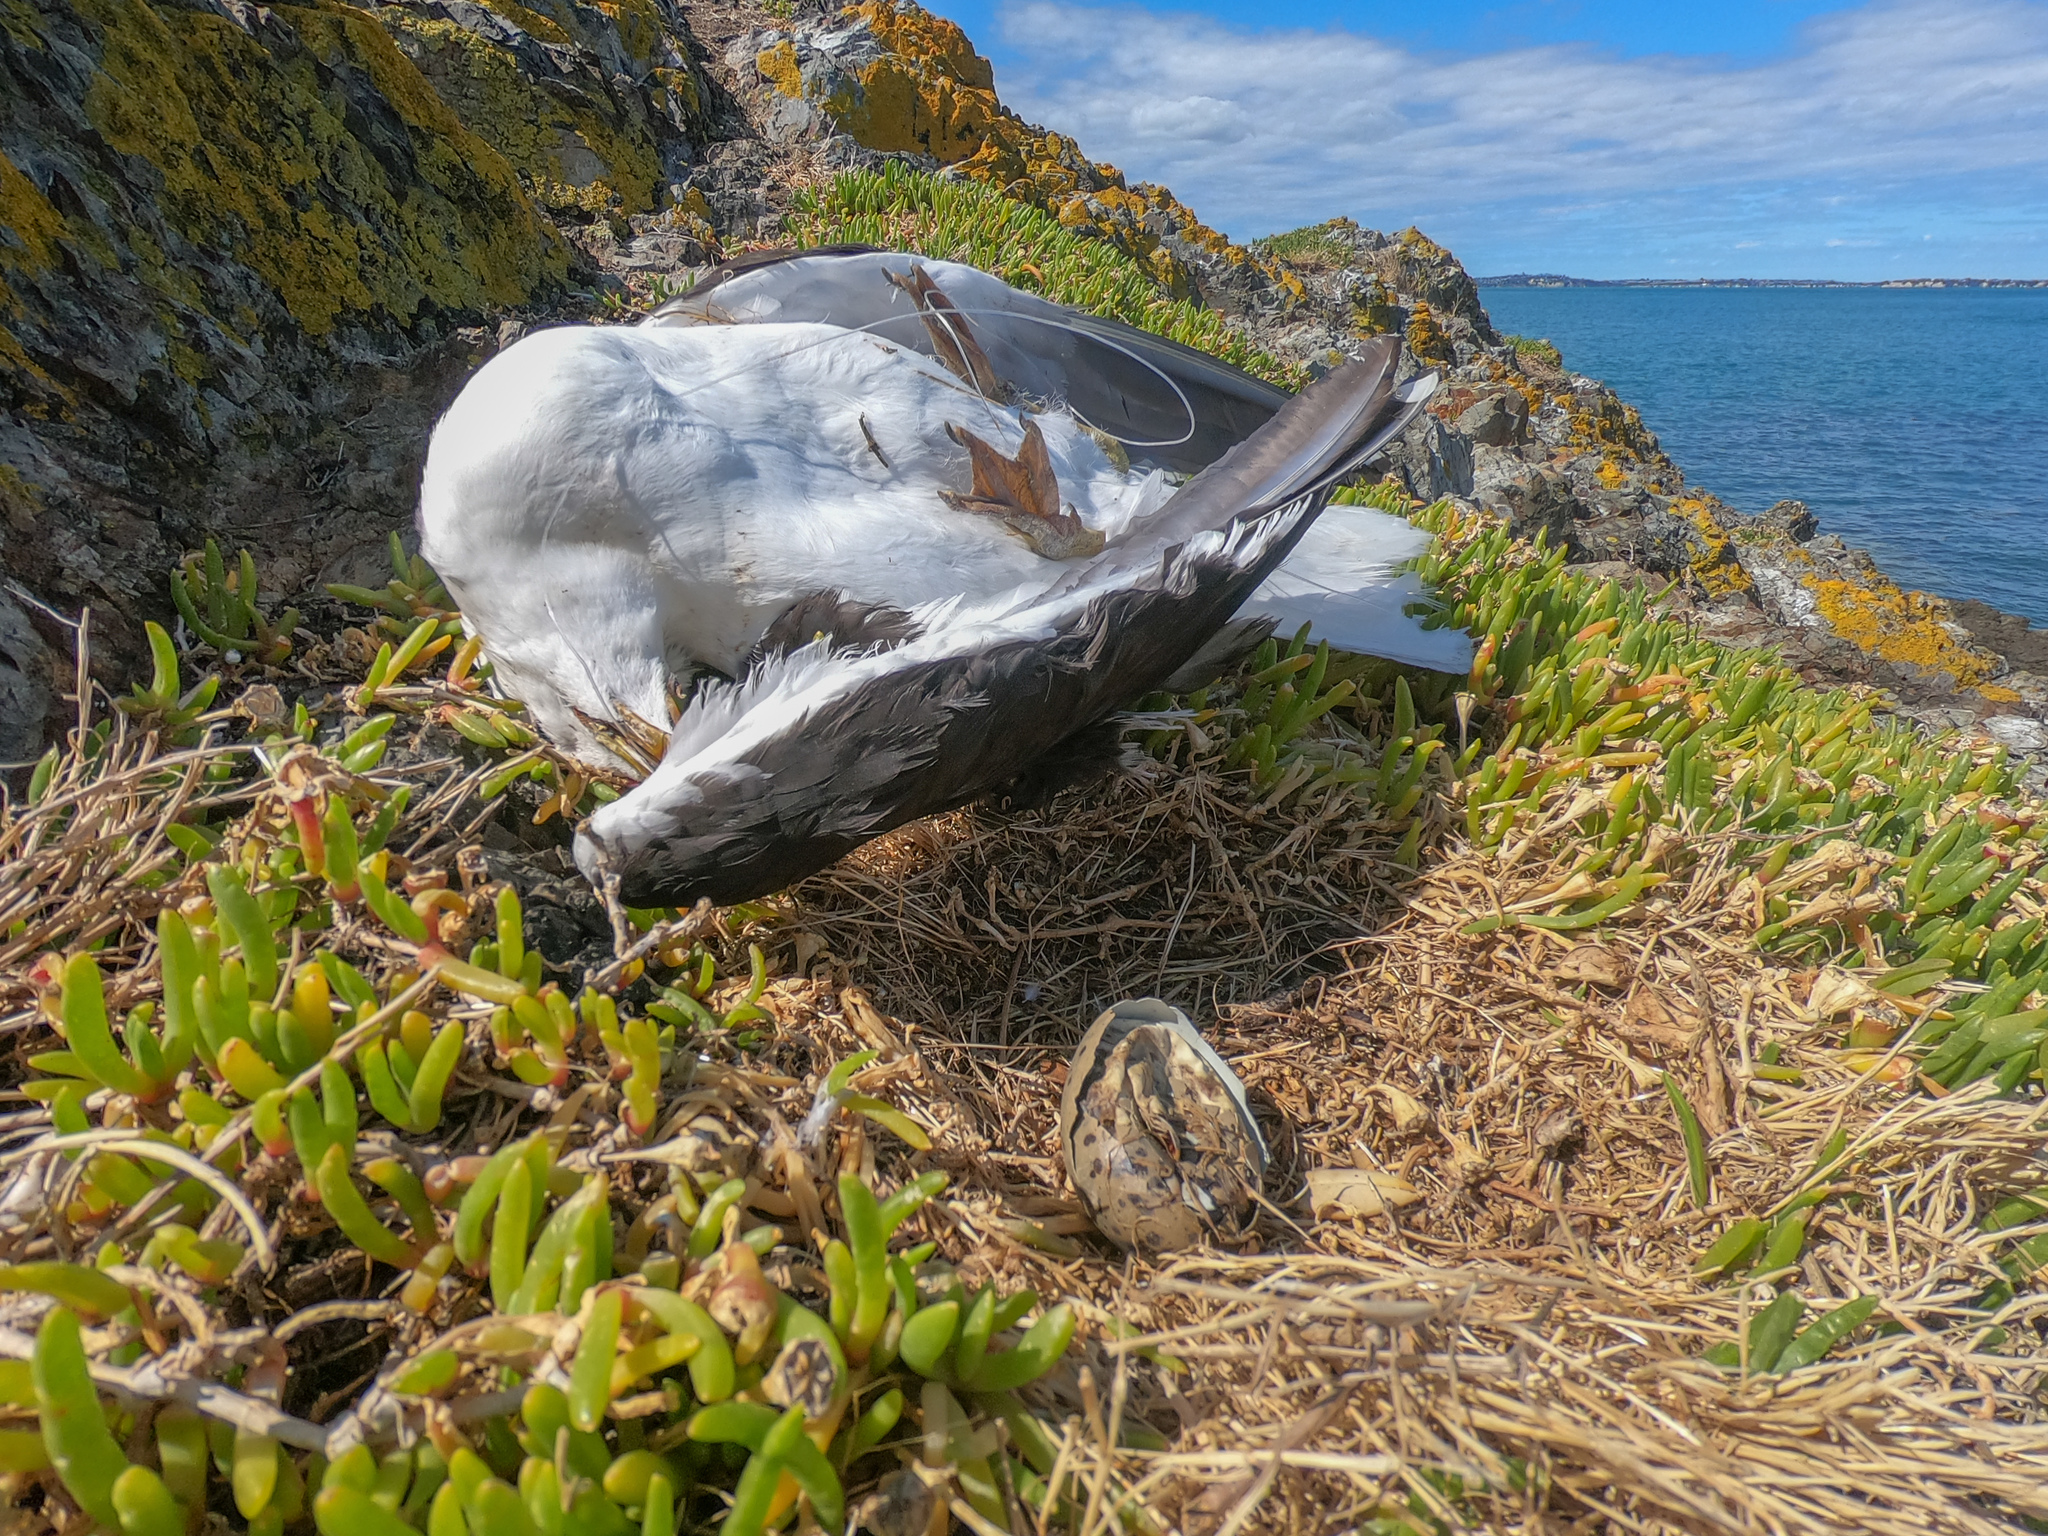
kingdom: Animalia
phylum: Chordata
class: Aves
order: Charadriiformes
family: Laridae
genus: Larus
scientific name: Larus dominicanus
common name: Kelp gull
